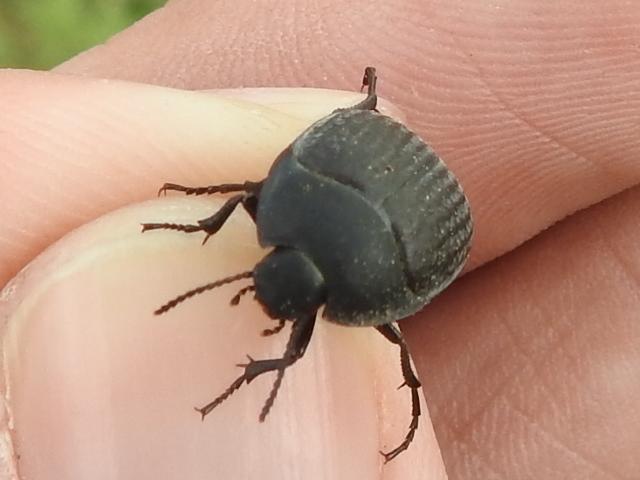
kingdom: Animalia
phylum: Arthropoda
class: Insecta
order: Coleoptera
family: Tenebrionidae
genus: Eusattus
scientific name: Eusattus reticulatus
